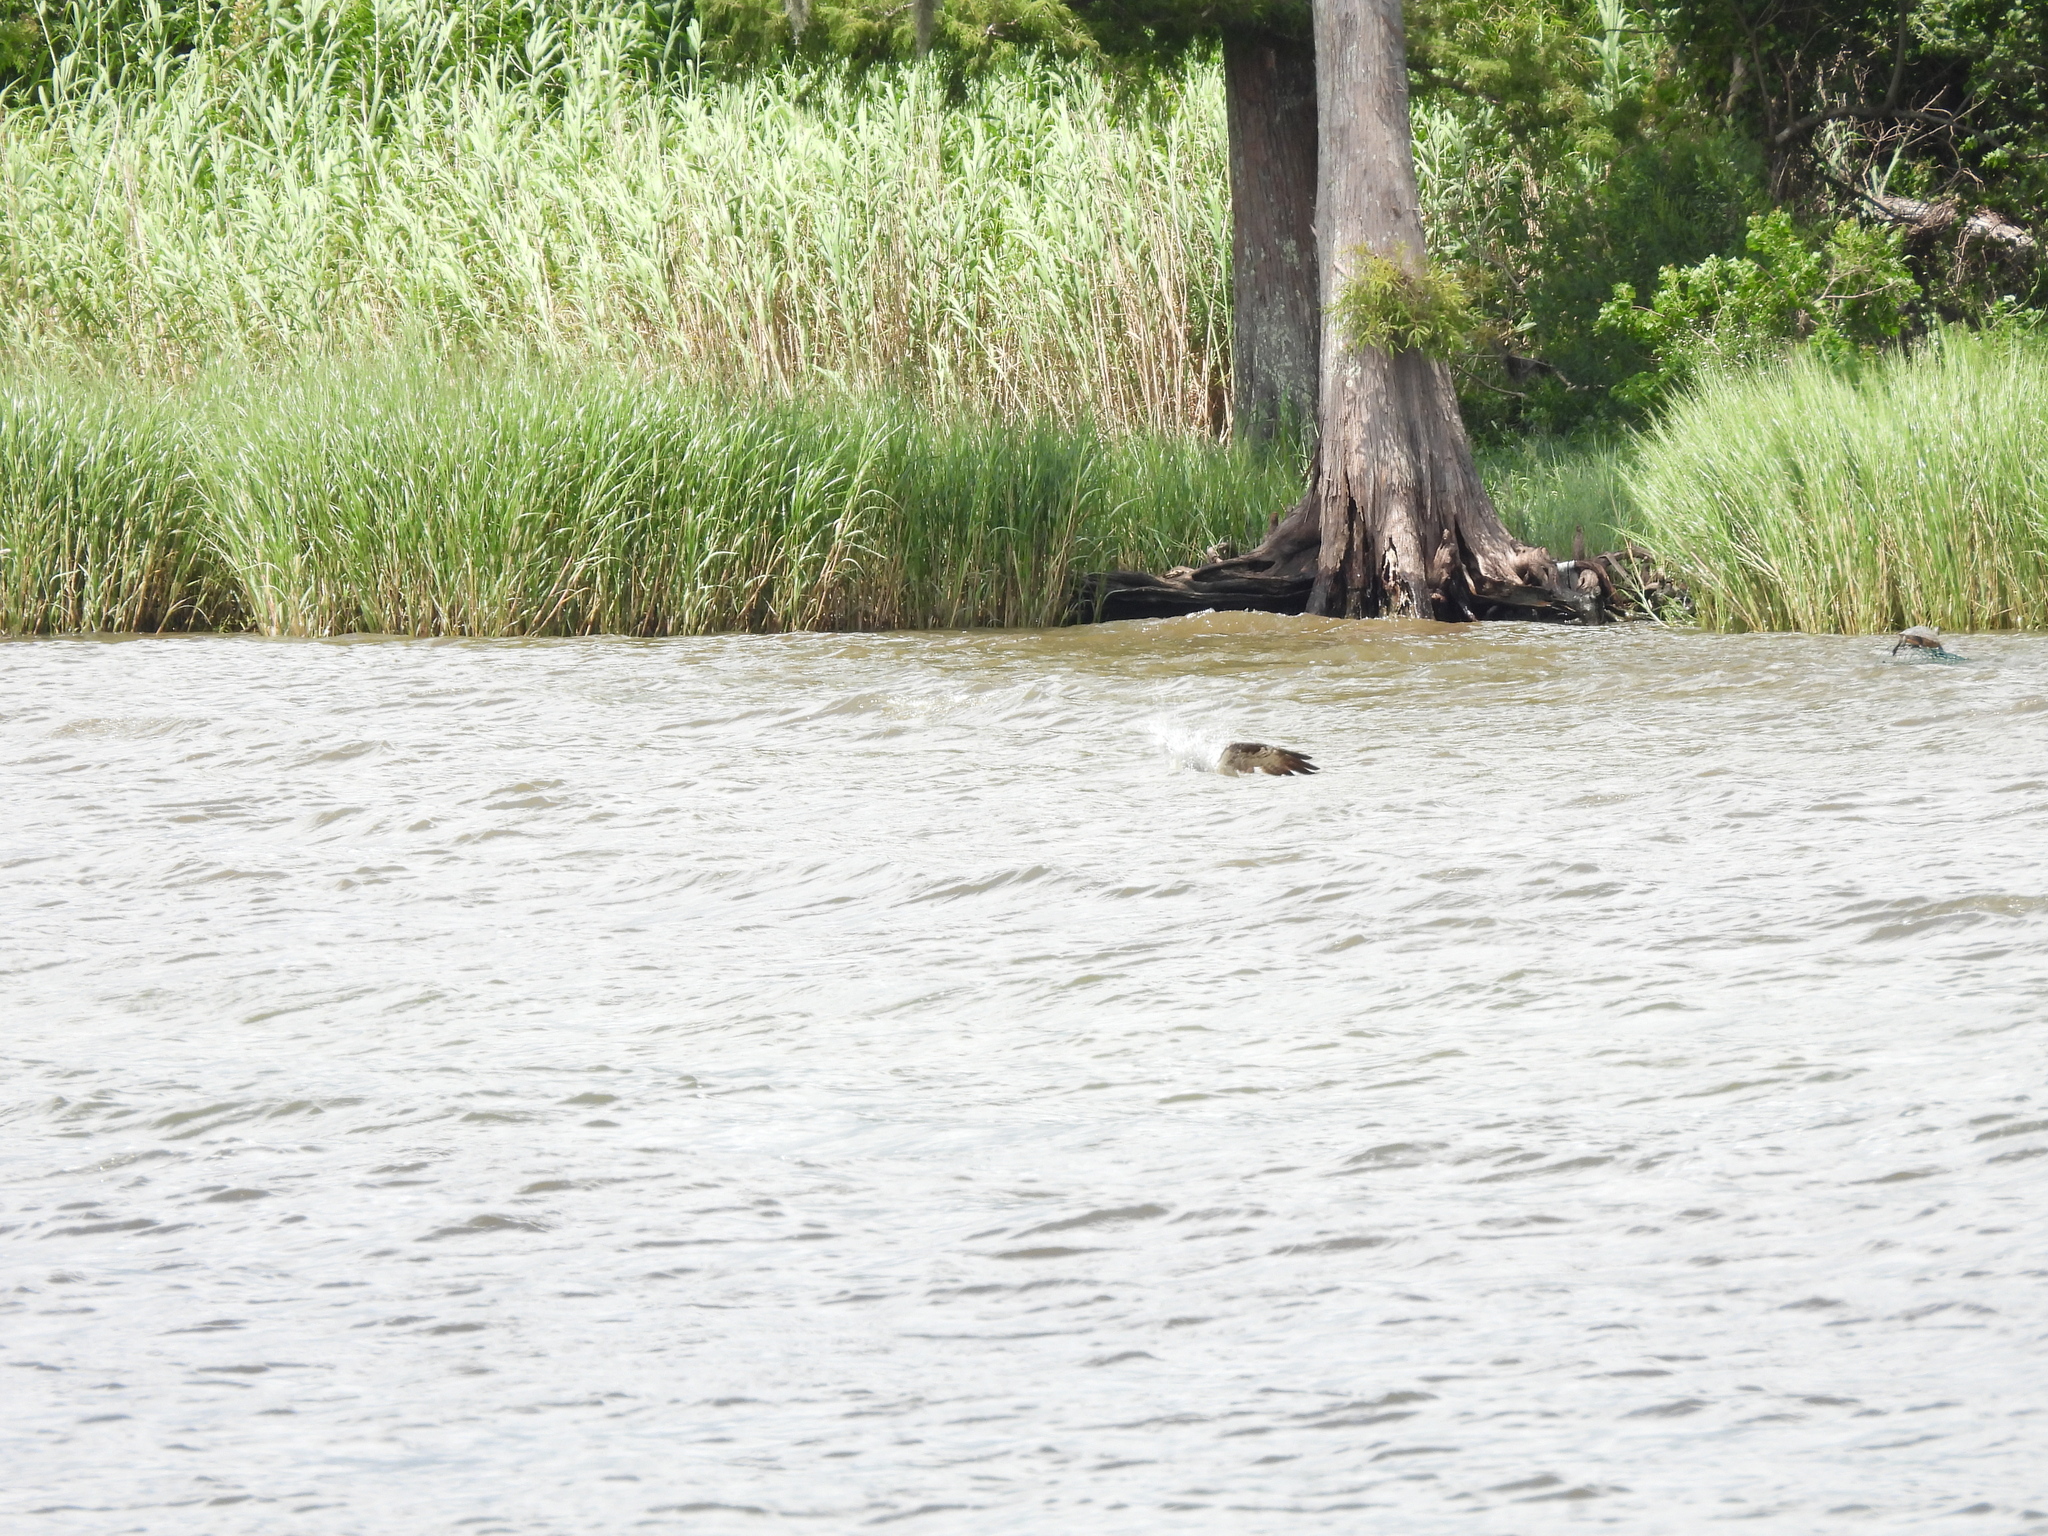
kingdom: Animalia
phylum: Chordata
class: Aves
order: Accipitriformes
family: Pandionidae
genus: Pandion
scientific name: Pandion haliaetus
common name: Osprey
